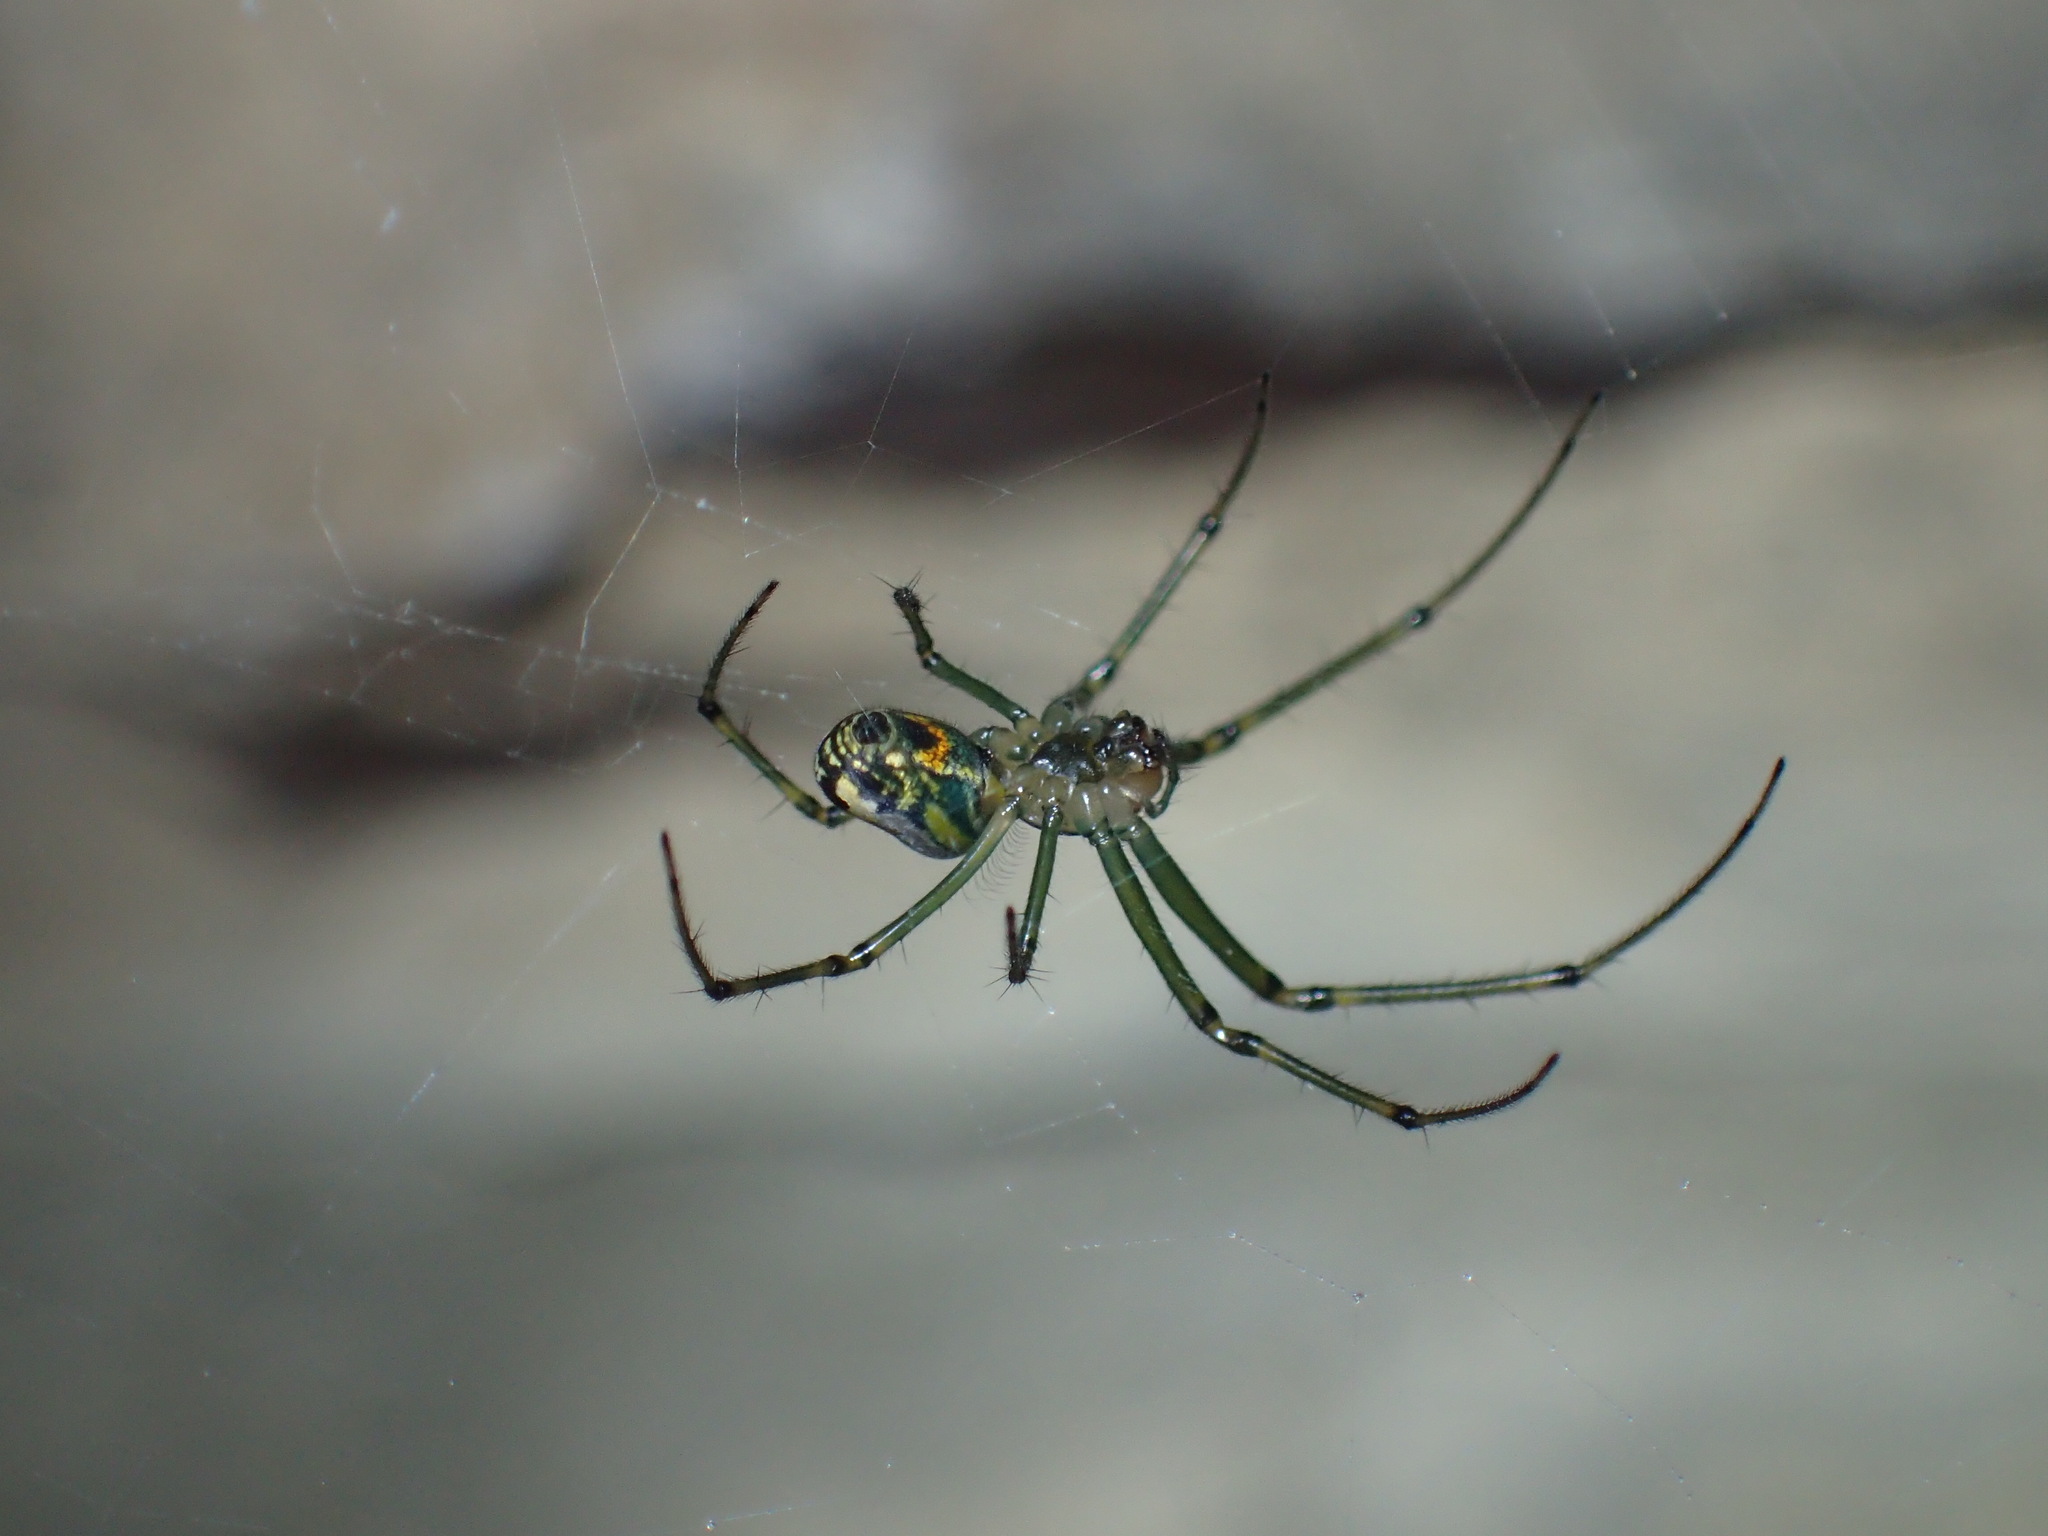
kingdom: Animalia
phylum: Arthropoda
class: Arachnida
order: Araneae
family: Tetragnathidae
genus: Leucauge
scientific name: Leucauge venusta
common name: Longjawed orb weavers
